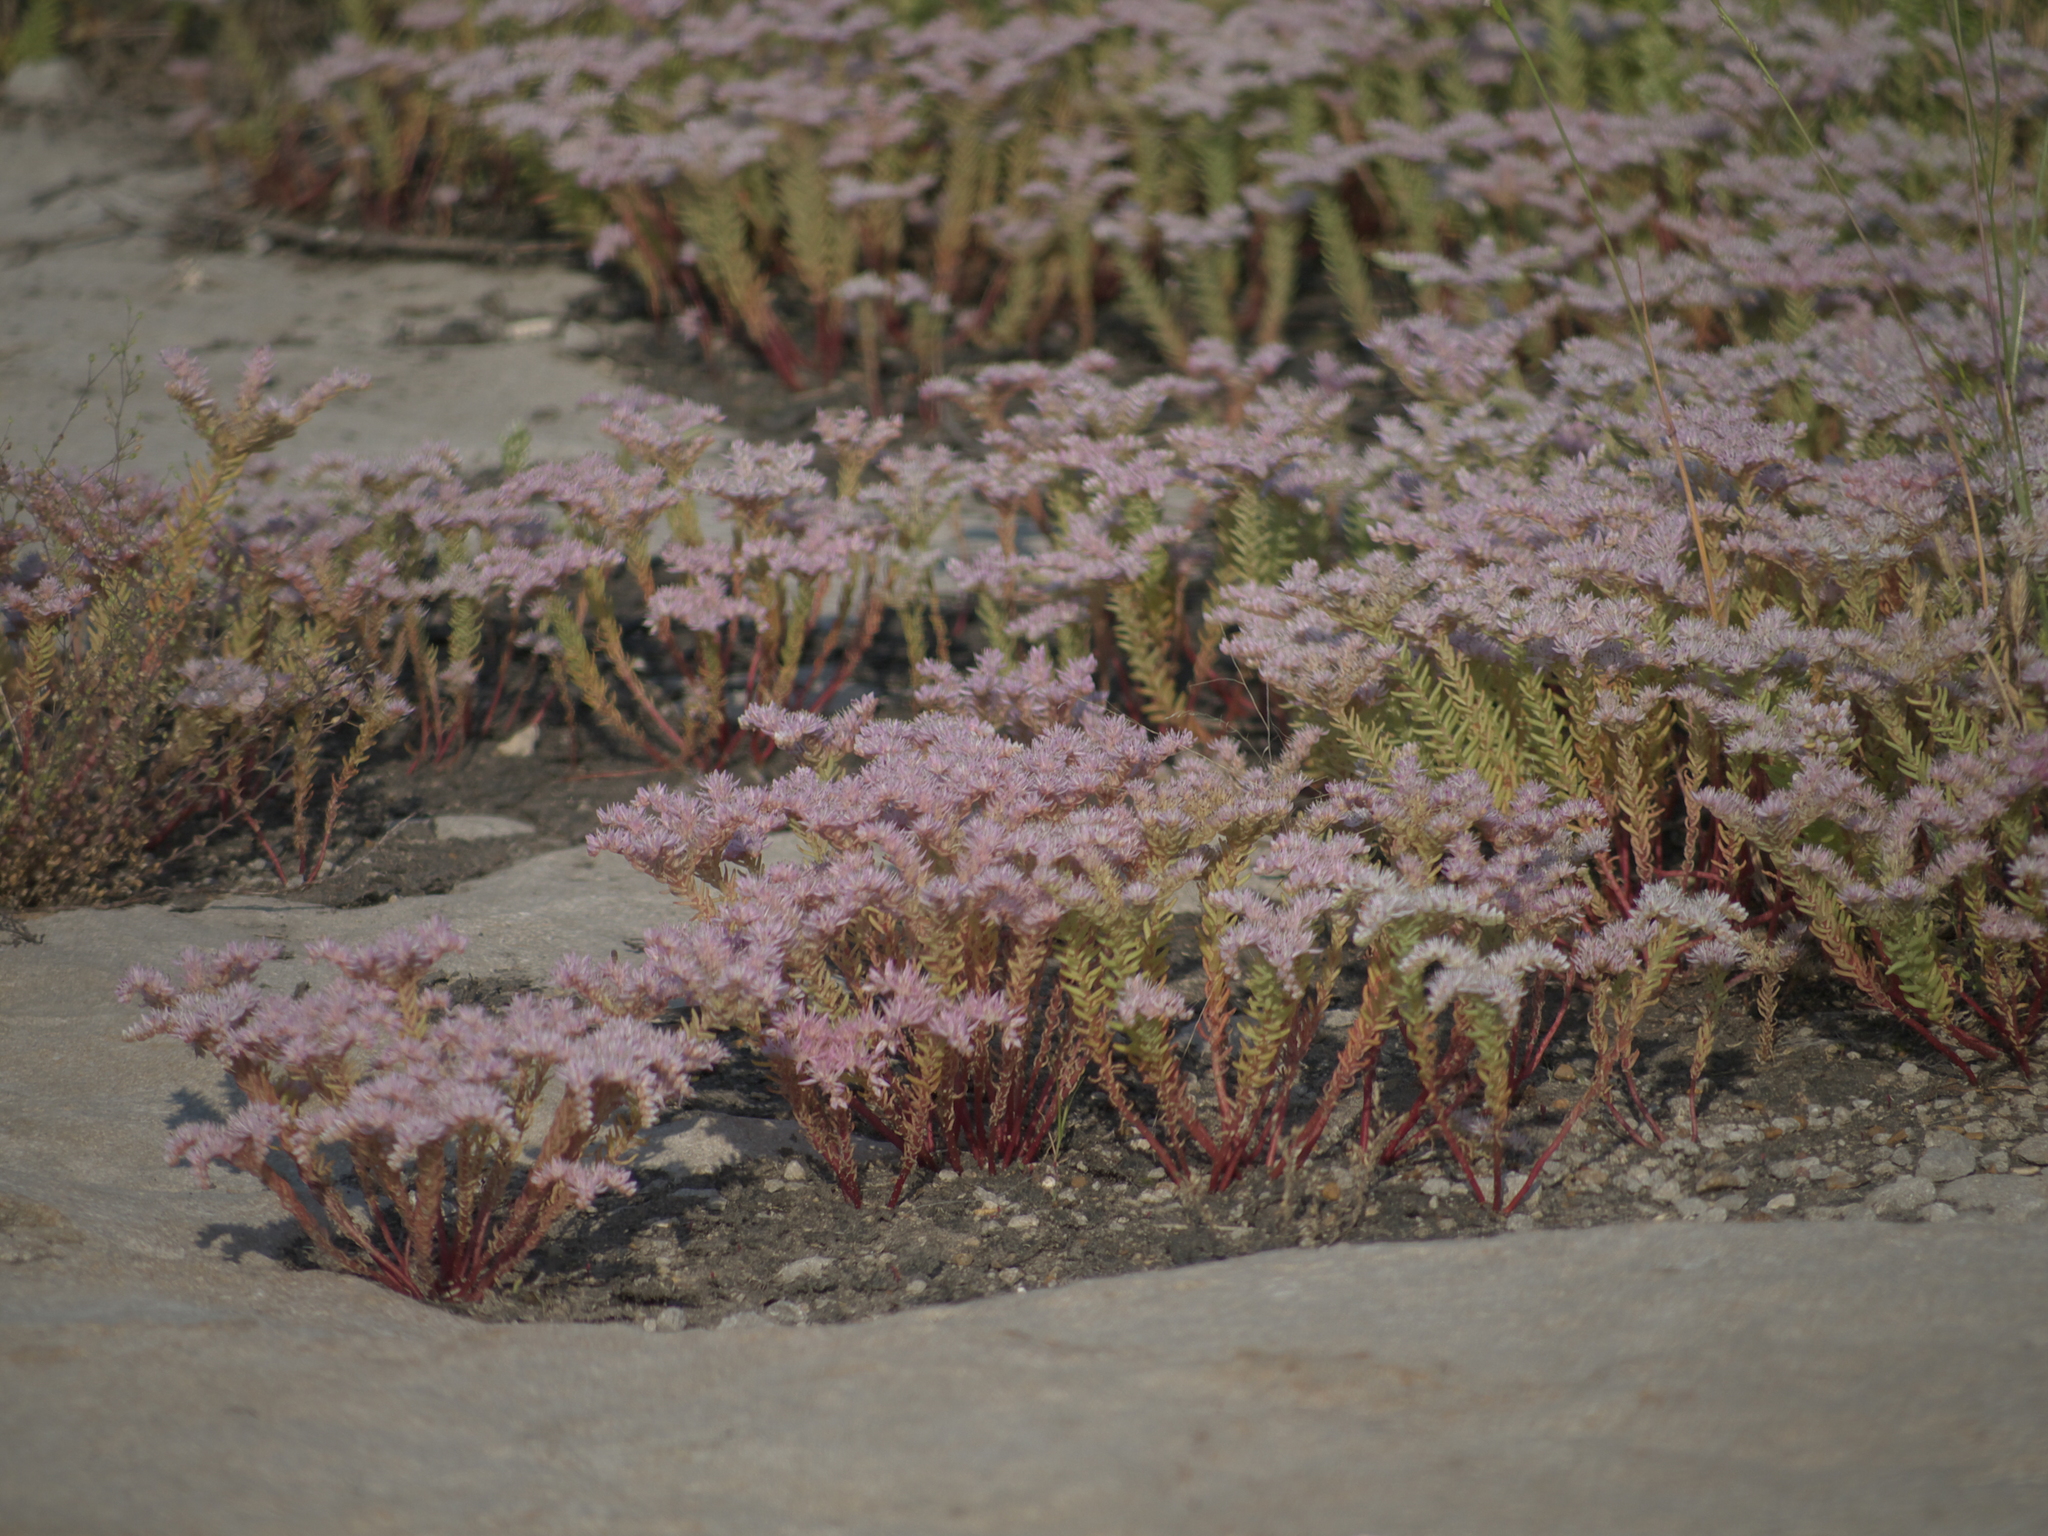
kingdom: Plantae
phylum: Tracheophyta
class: Magnoliopsida
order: Saxifragales
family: Crassulaceae
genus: Sedum
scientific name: Sedum pulchellum
